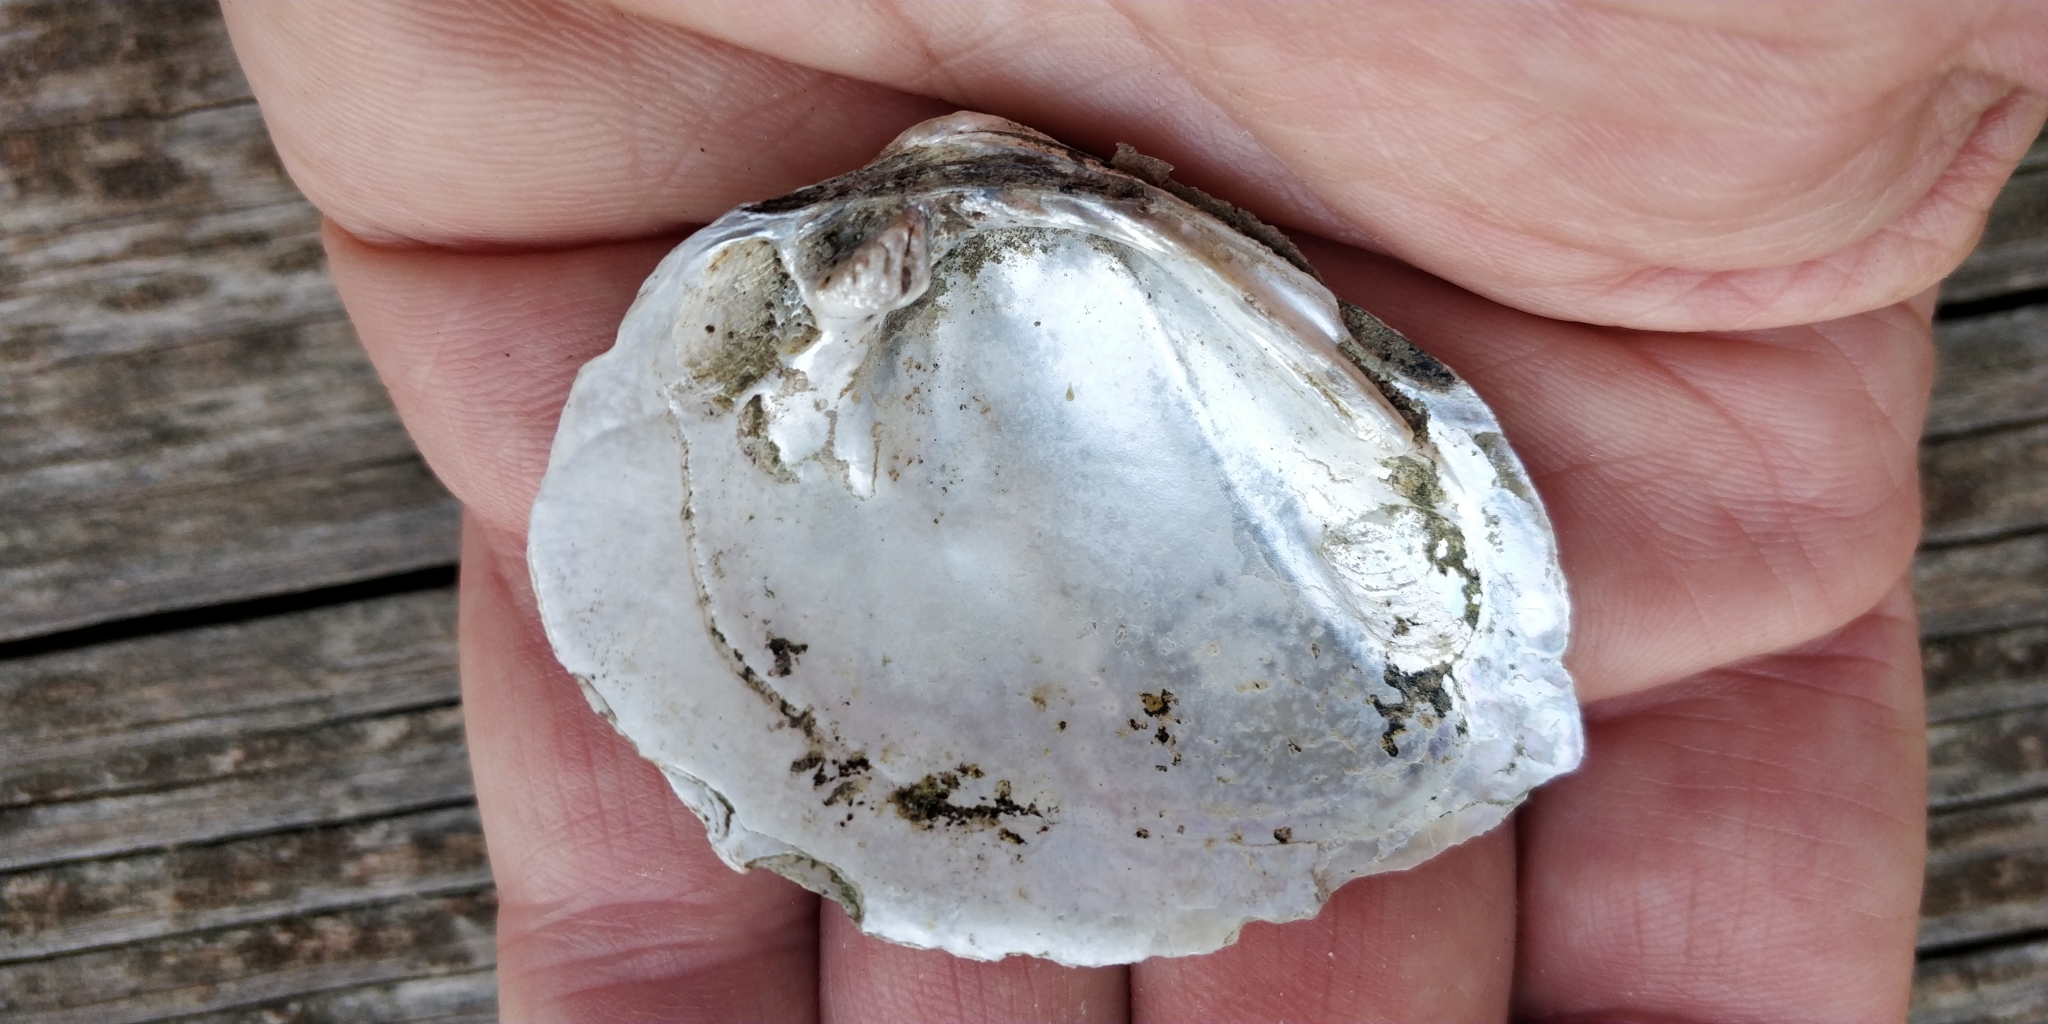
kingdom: Animalia
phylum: Mollusca
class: Bivalvia
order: Unionida
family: Unionidae
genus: Fusconaia
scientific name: Fusconaia flava
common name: Wabash pigtoe
